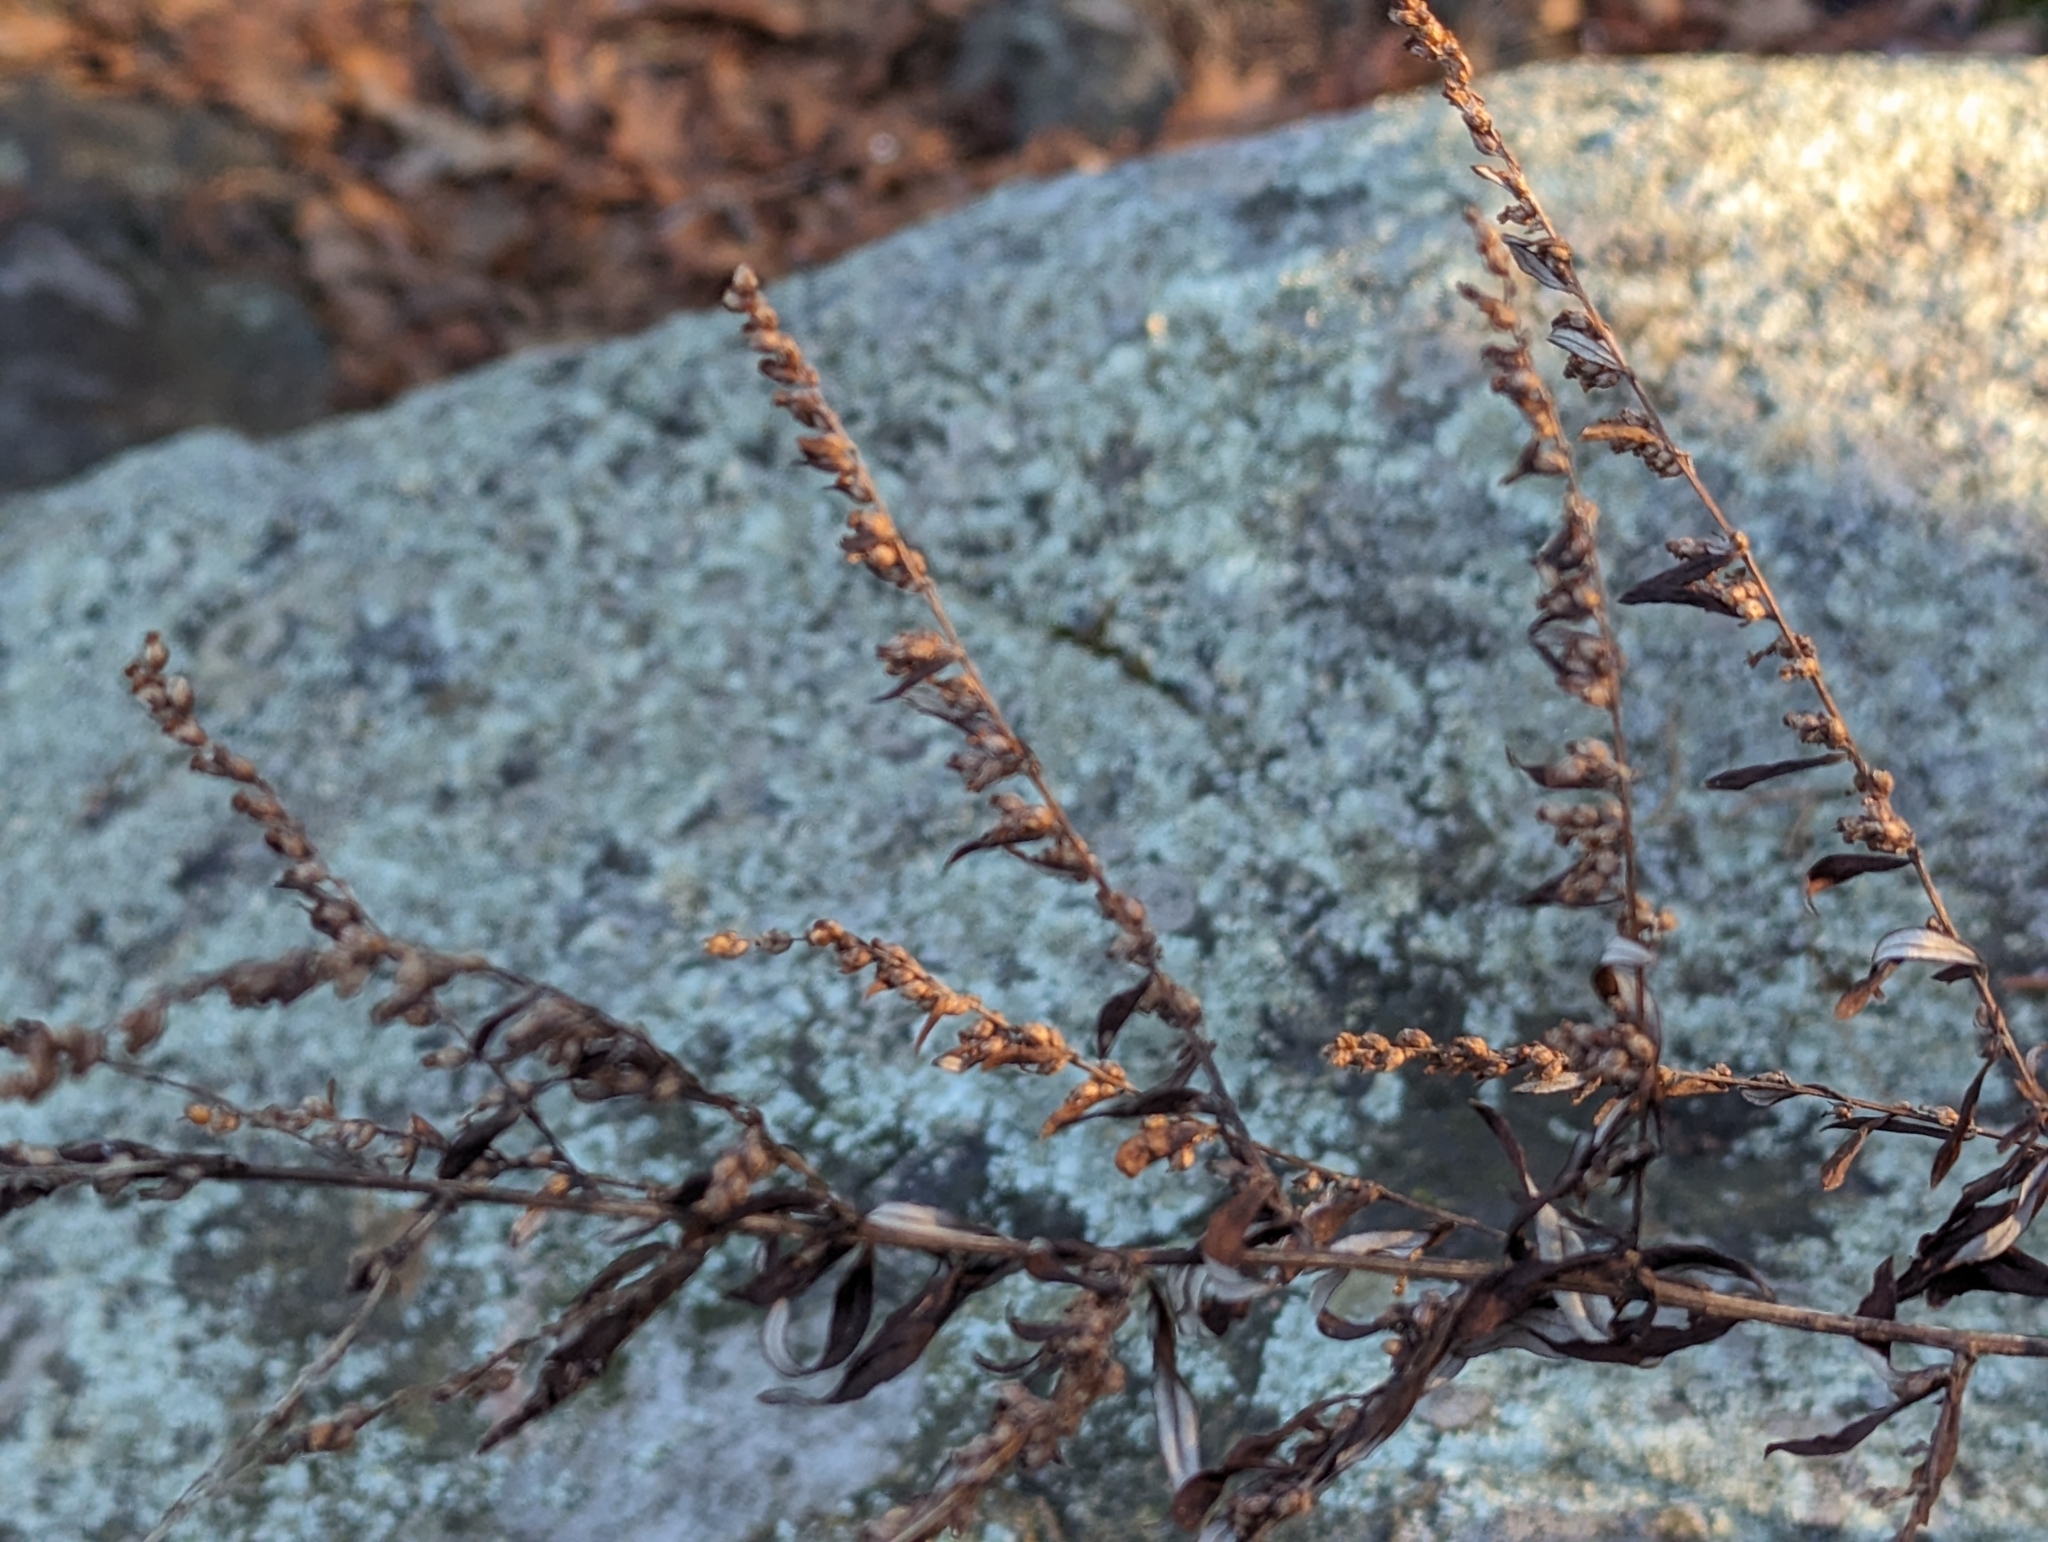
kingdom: Plantae
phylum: Tracheophyta
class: Magnoliopsida
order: Asterales
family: Asteraceae
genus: Artemisia
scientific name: Artemisia vulgaris
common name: Mugwort
